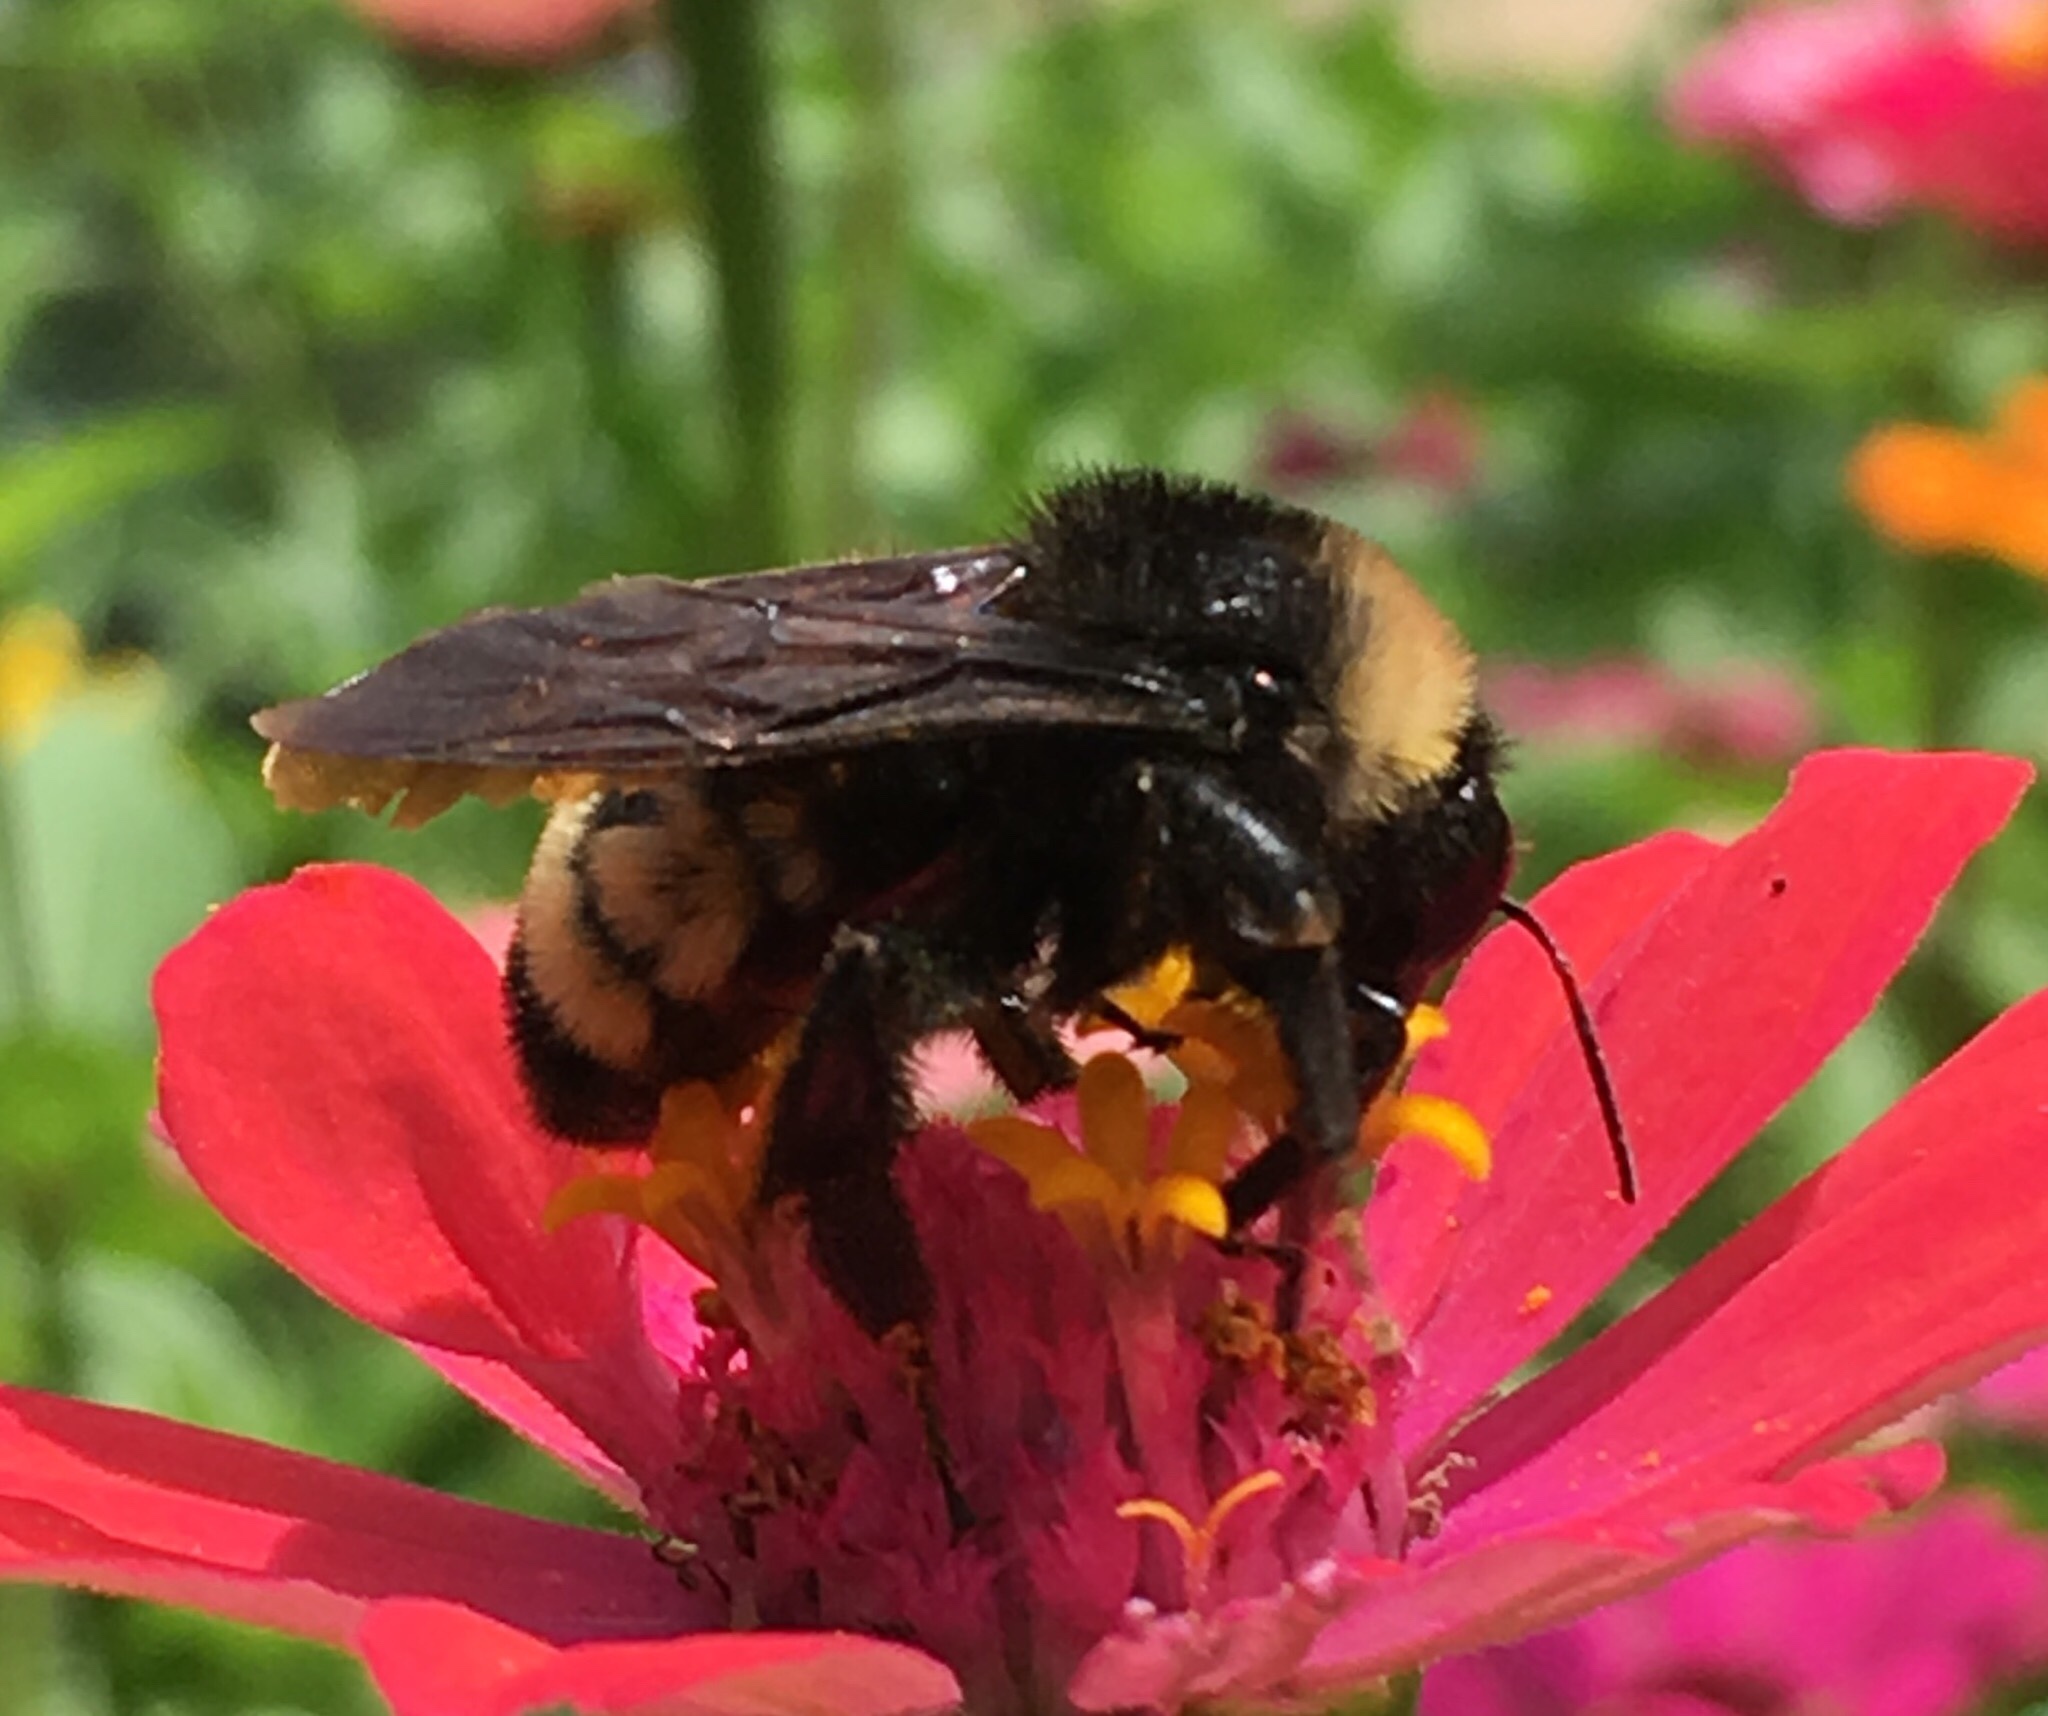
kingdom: Animalia
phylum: Arthropoda
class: Insecta
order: Hymenoptera
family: Apidae
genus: Bombus
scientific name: Bombus pensylvanicus
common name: Bumble bee
